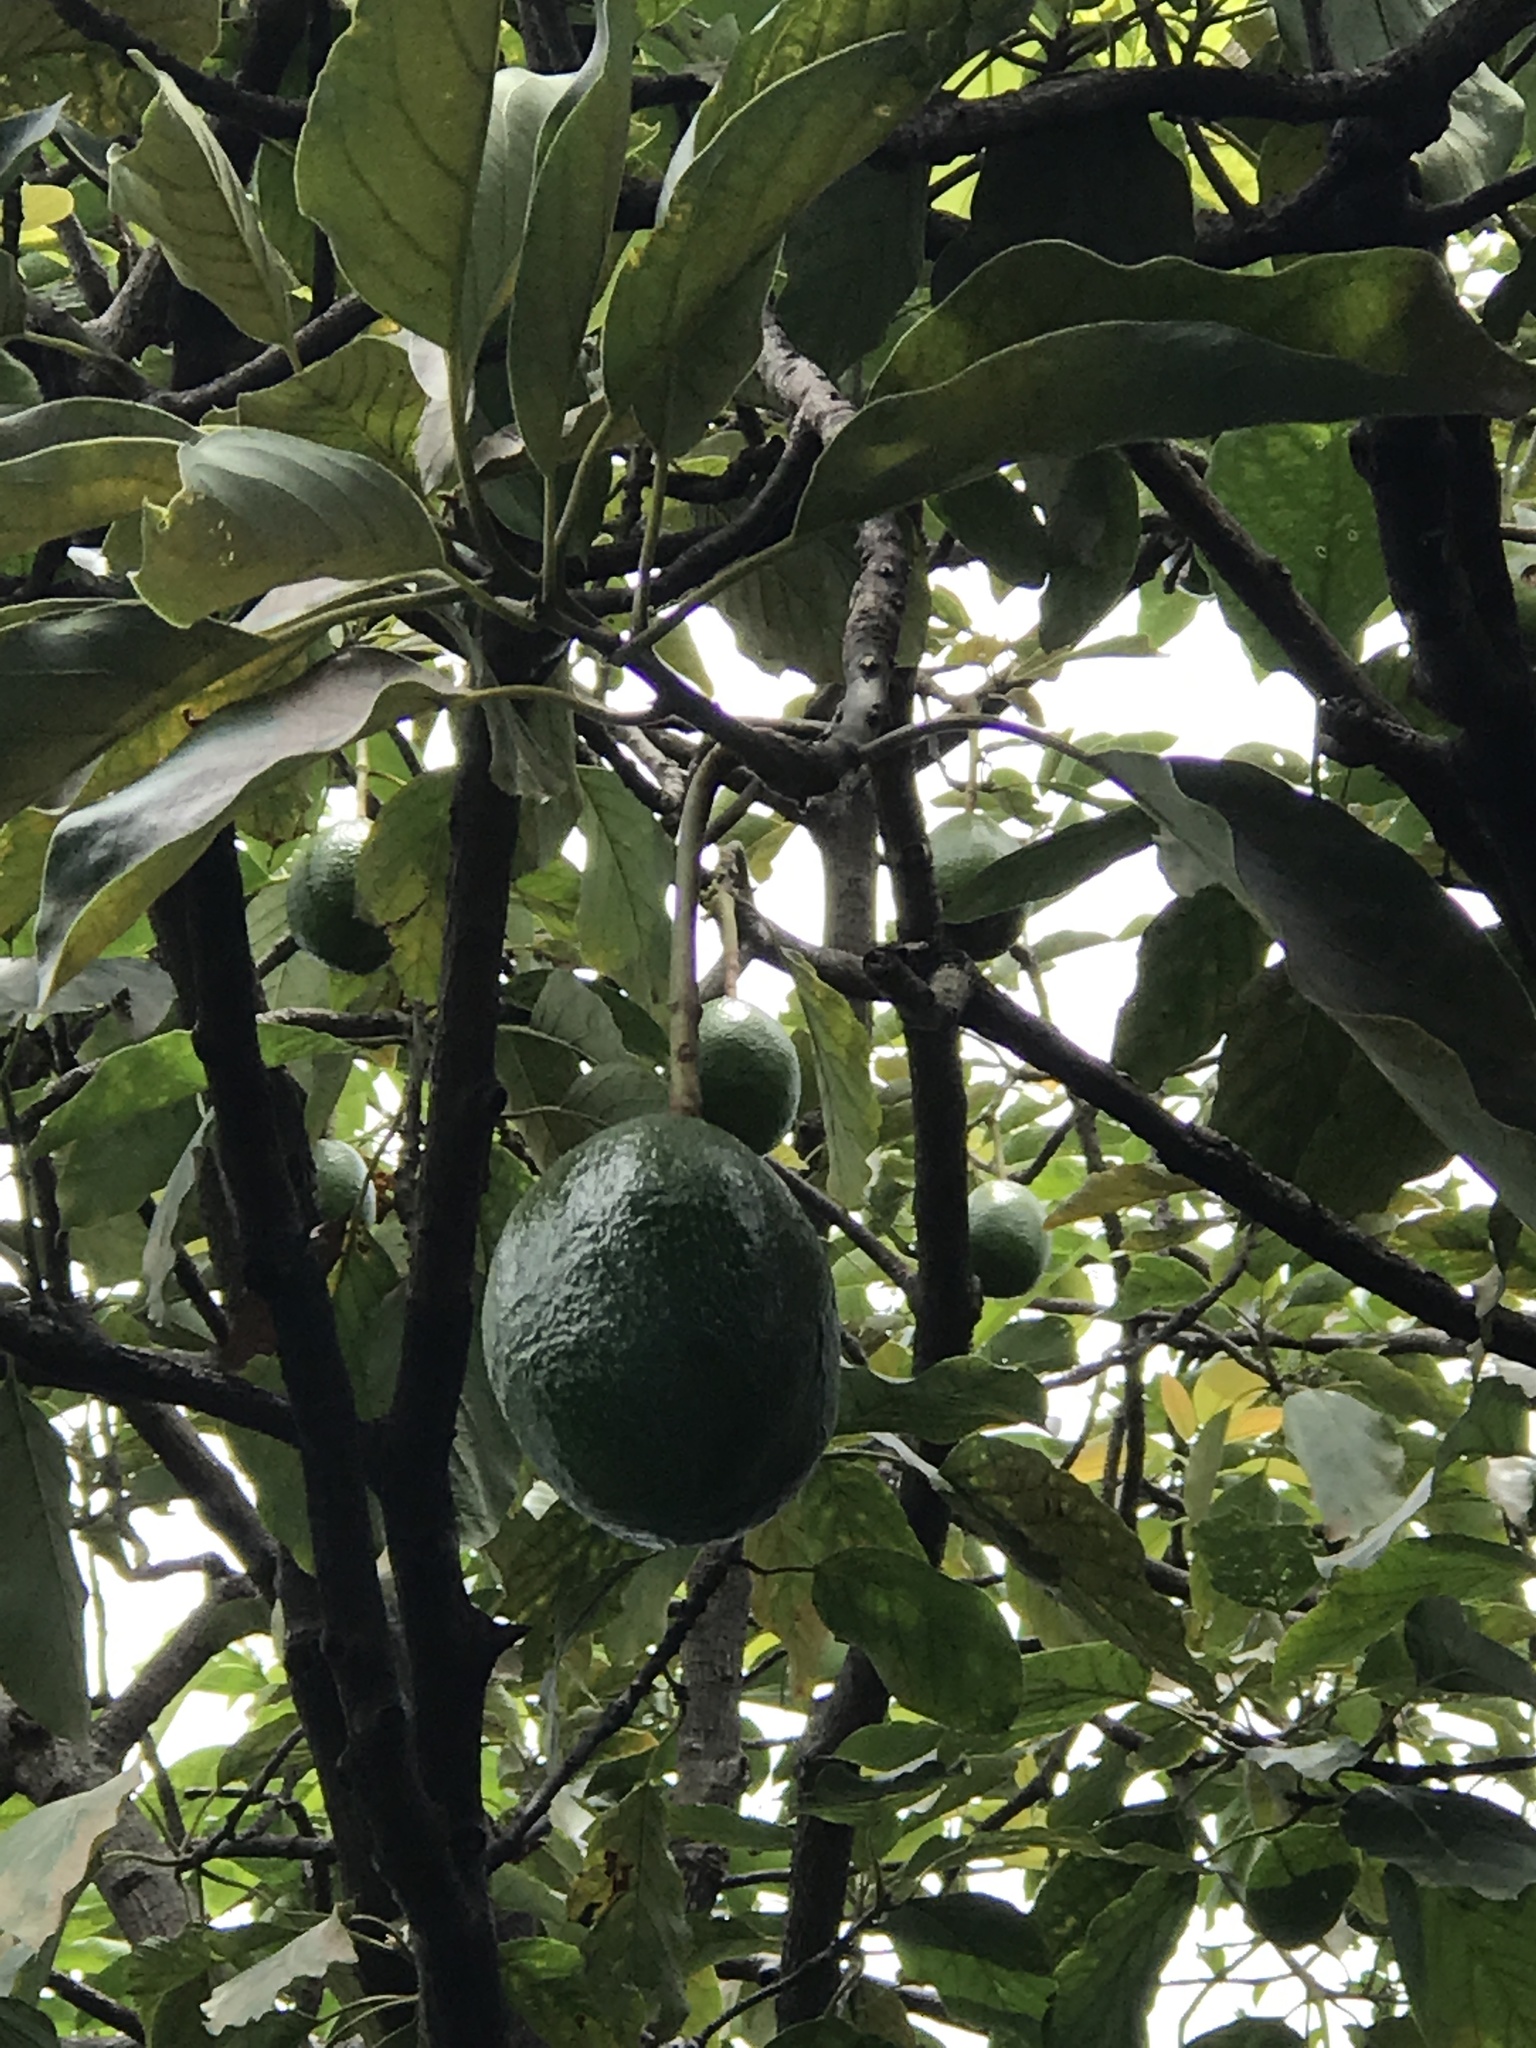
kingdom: Plantae
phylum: Tracheophyta
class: Magnoliopsida
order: Laurales
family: Lauraceae
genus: Persea
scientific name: Persea americana
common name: Avocado
